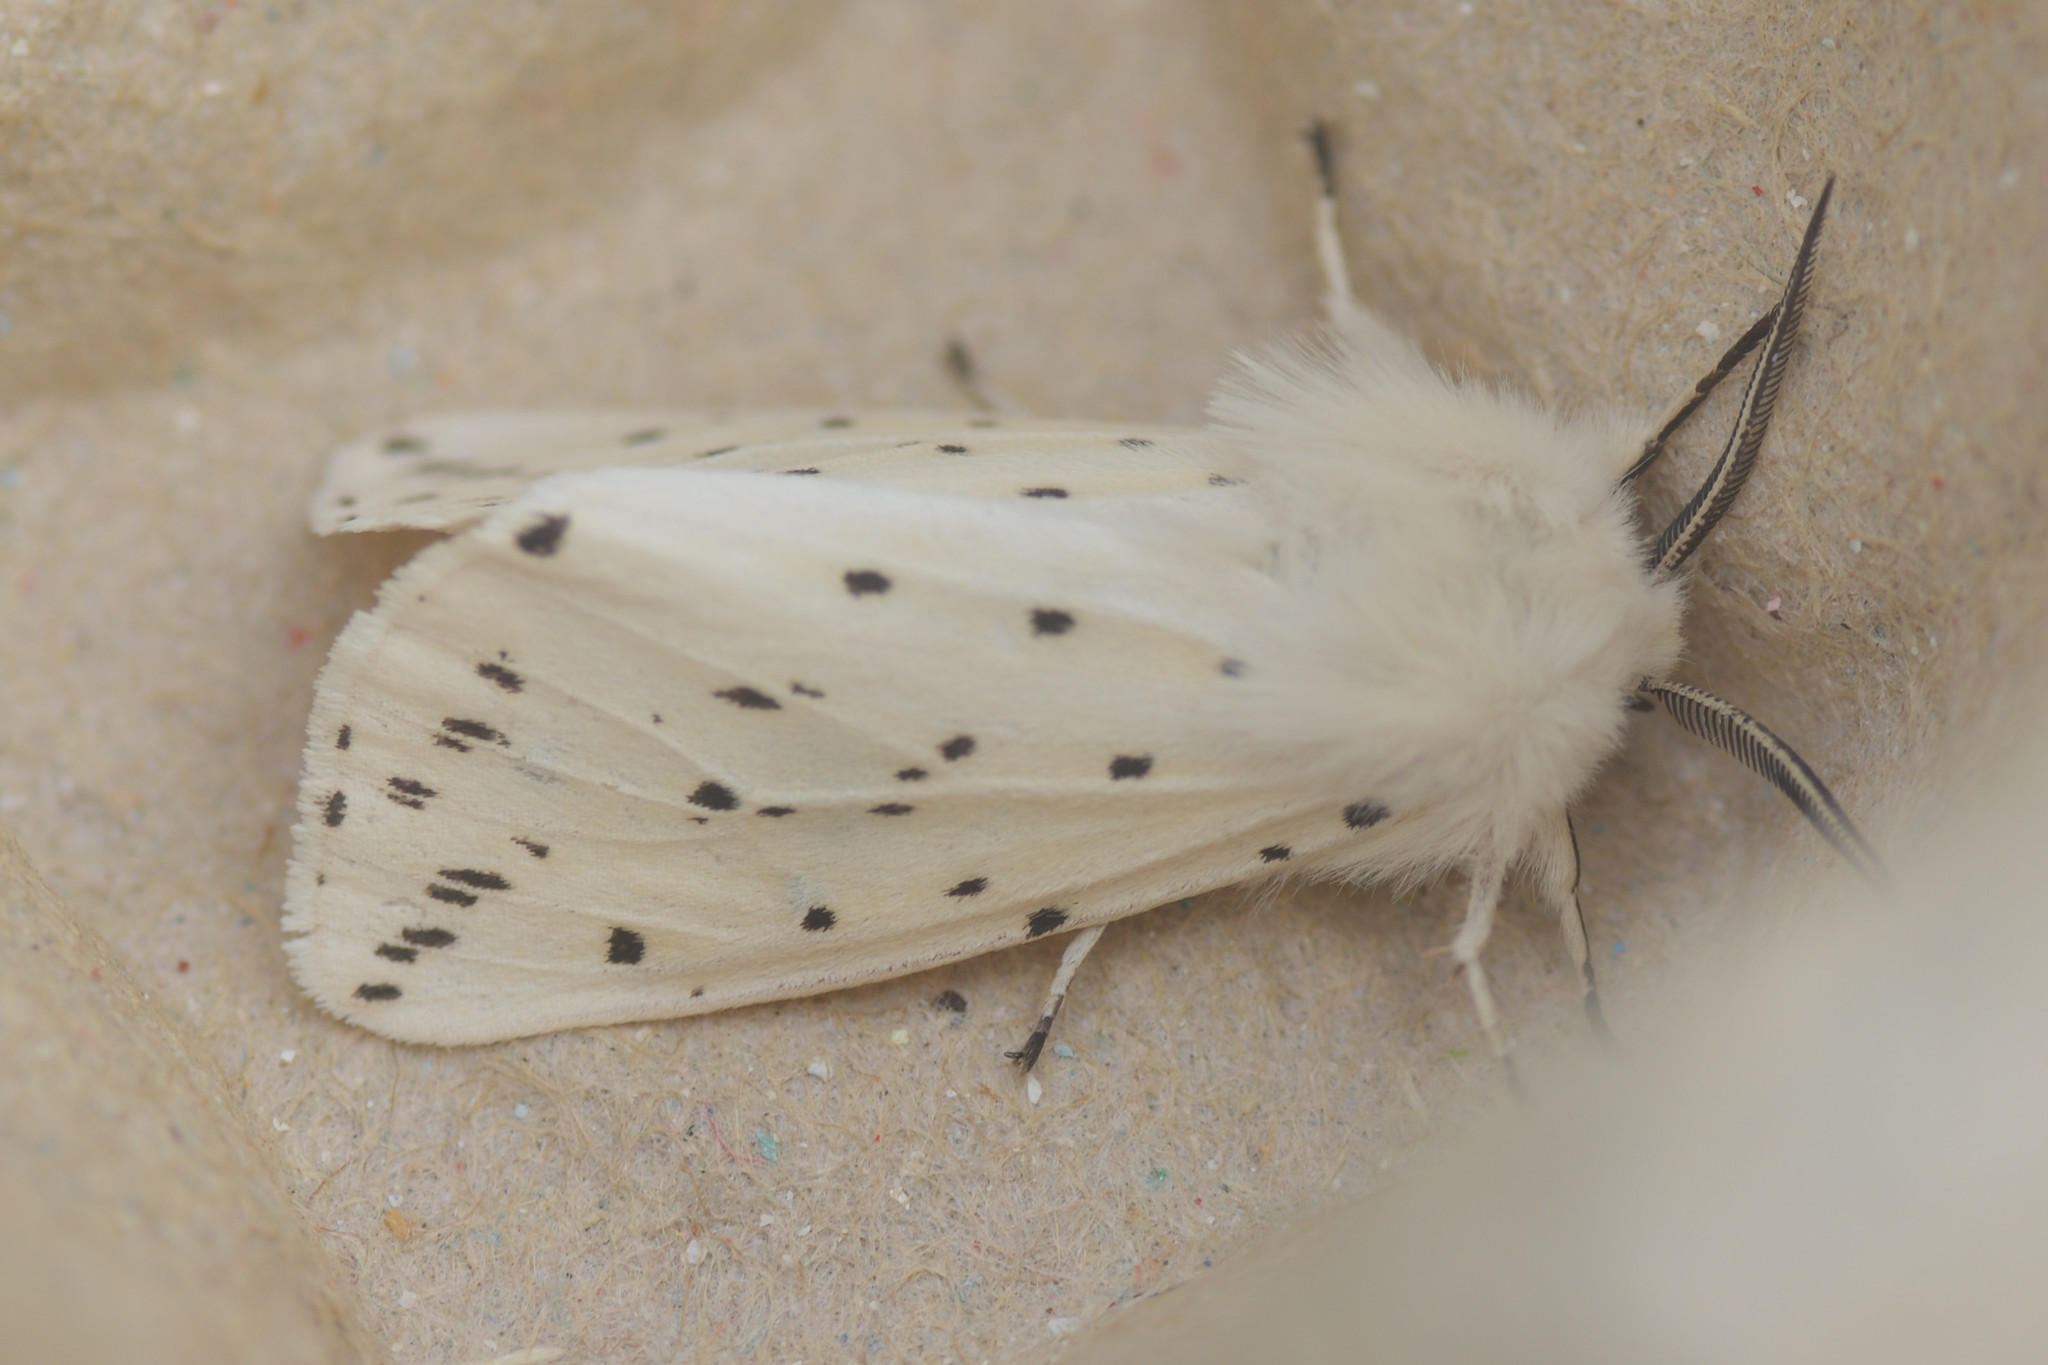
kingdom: Animalia
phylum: Arthropoda
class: Insecta
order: Lepidoptera
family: Erebidae
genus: Spilosoma
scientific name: Spilosoma lubricipeda
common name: White ermine
